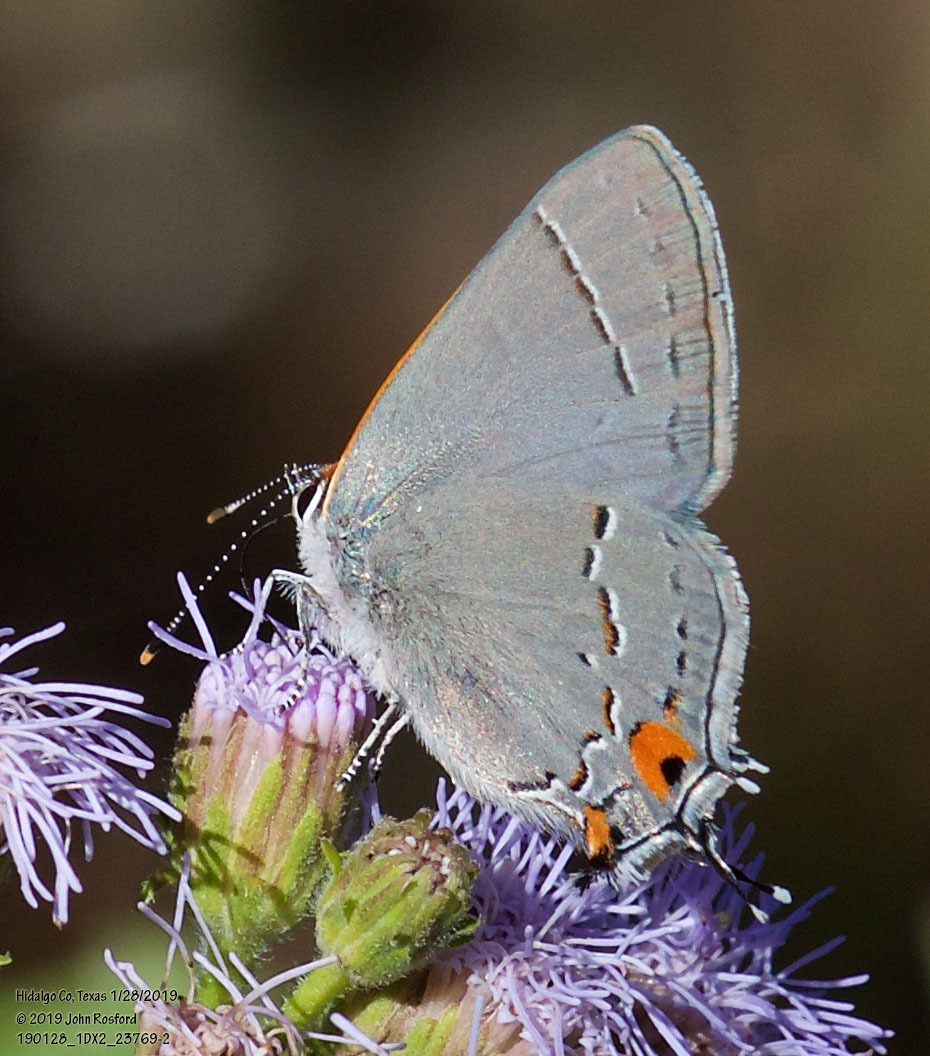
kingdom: Animalia
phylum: Arthropoda
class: Insecta
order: Lepidoptera
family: Lycaenidae
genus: Strymon
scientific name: Strymon melinus
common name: Gray hairstreak
